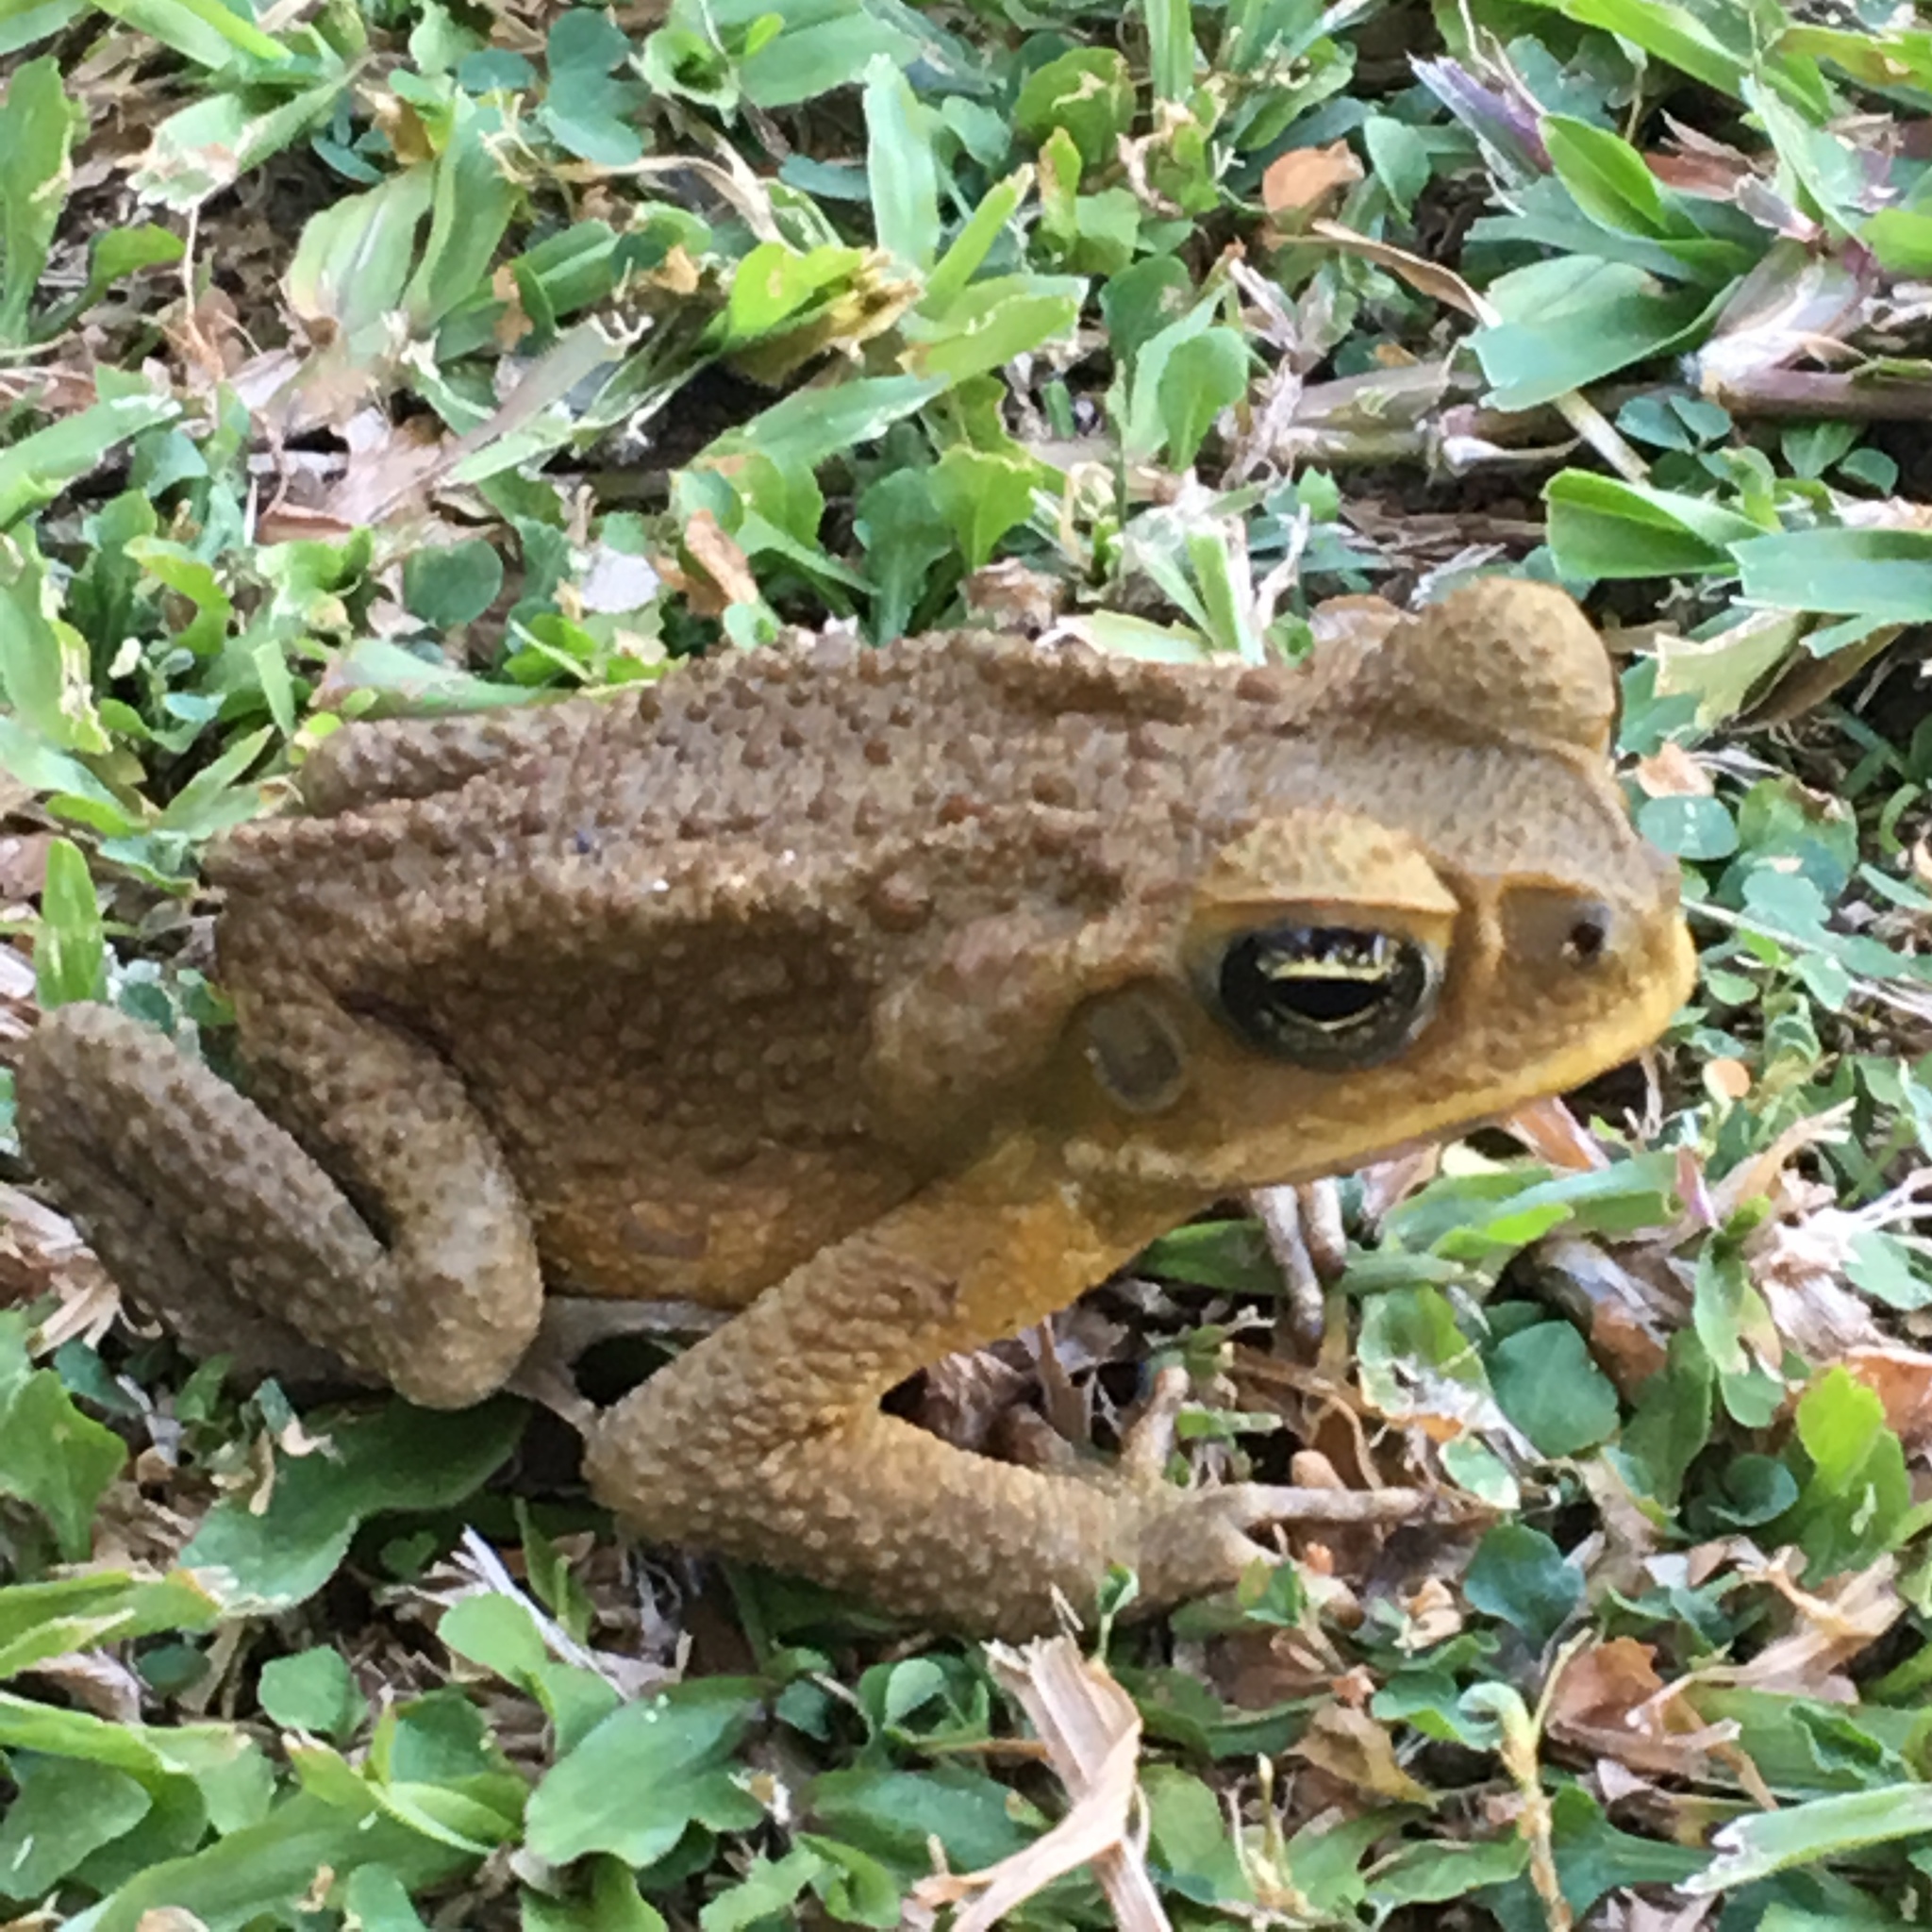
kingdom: Animalia
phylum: Chordata
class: Amphibia
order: Anura
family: Bufonidae
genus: Rhinella
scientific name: Rhinella marina
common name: Cane toad
